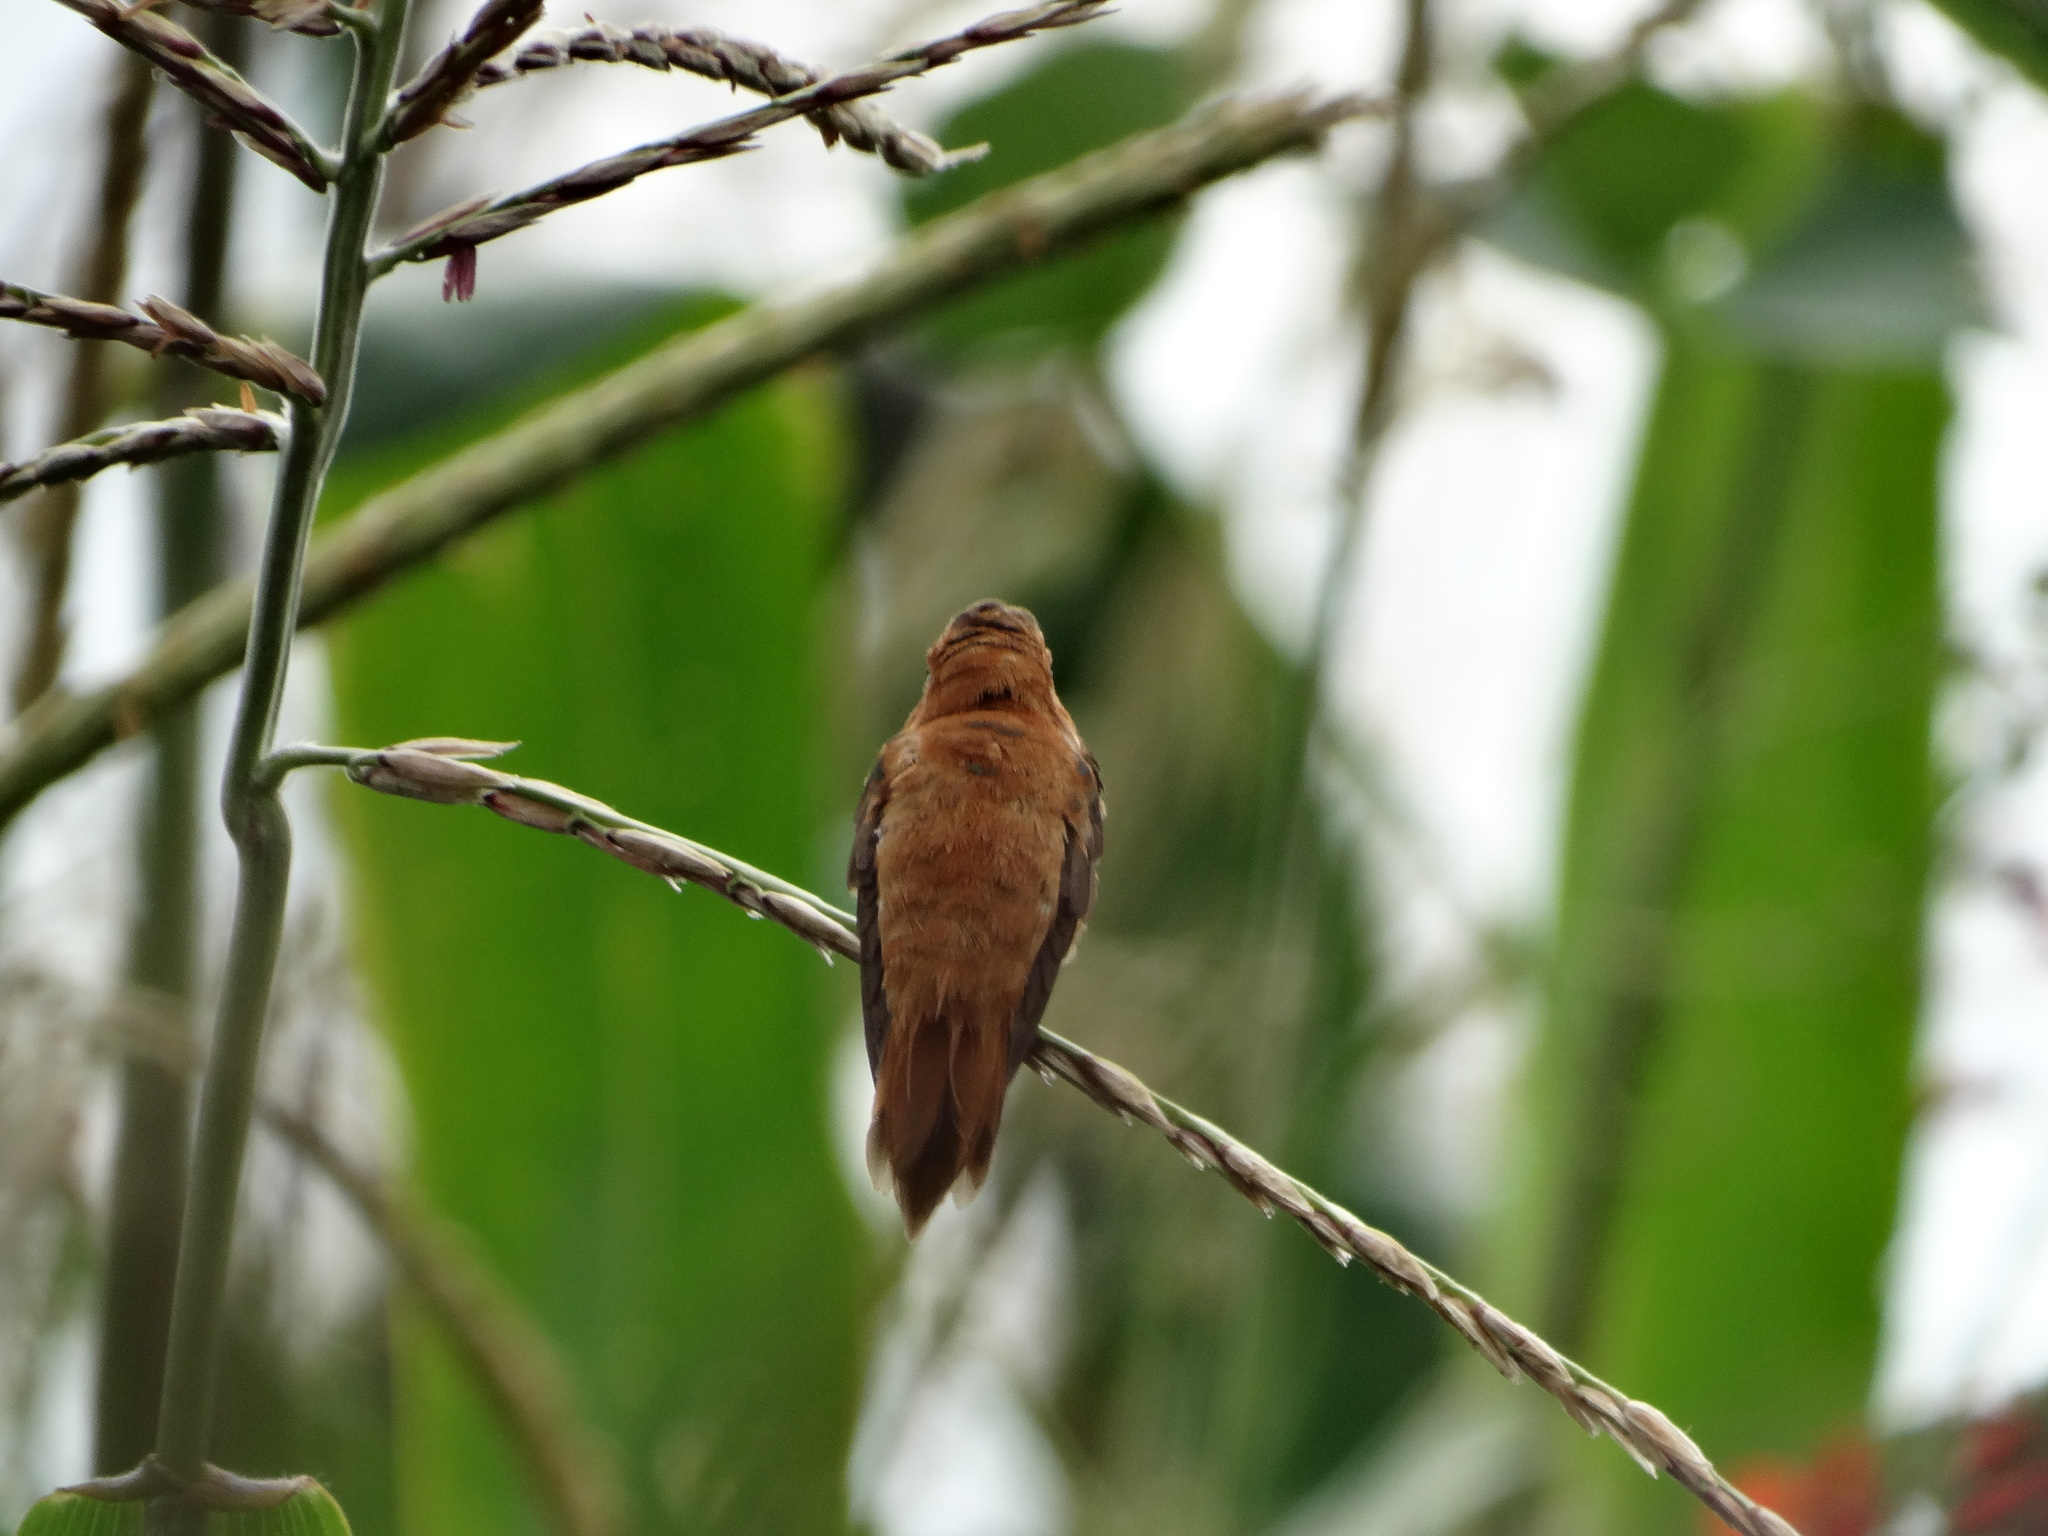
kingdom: Animalia
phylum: Chordata
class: Aves
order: Apodiformes
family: Trochilidae
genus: Selasphorus
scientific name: Selasphorus rufus
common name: Rufous hummingbird
